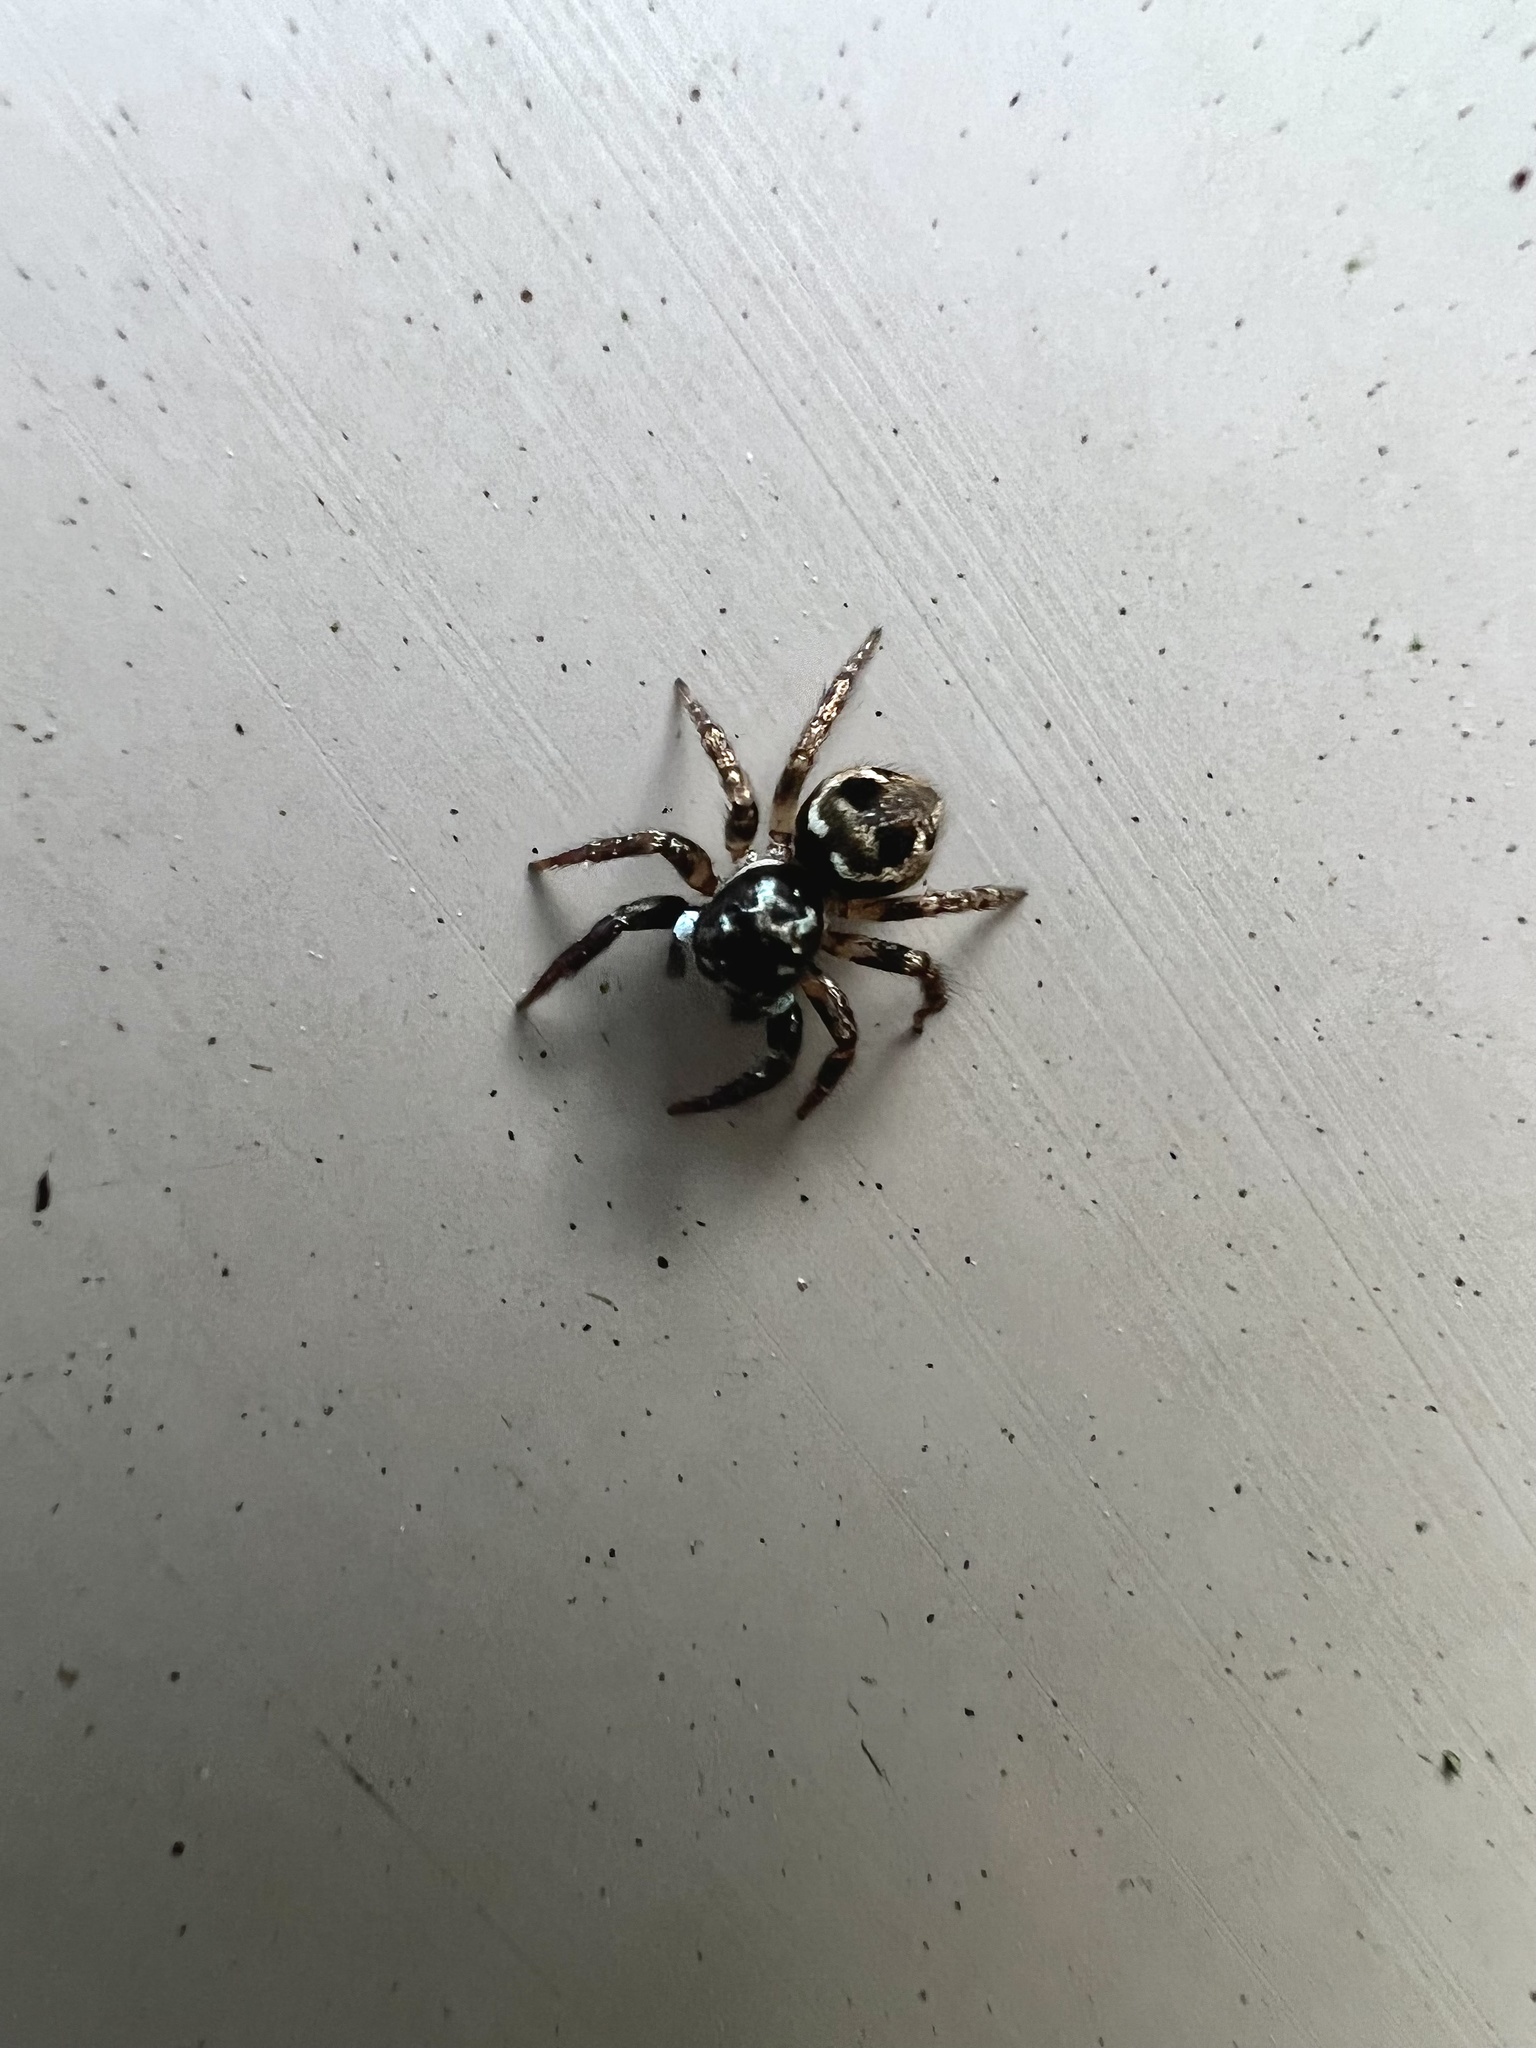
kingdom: Animalia
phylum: Arthropoda
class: Arachnida
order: Araneae
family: Salticidae
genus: Anasaitis
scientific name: Anasaitis canosa
